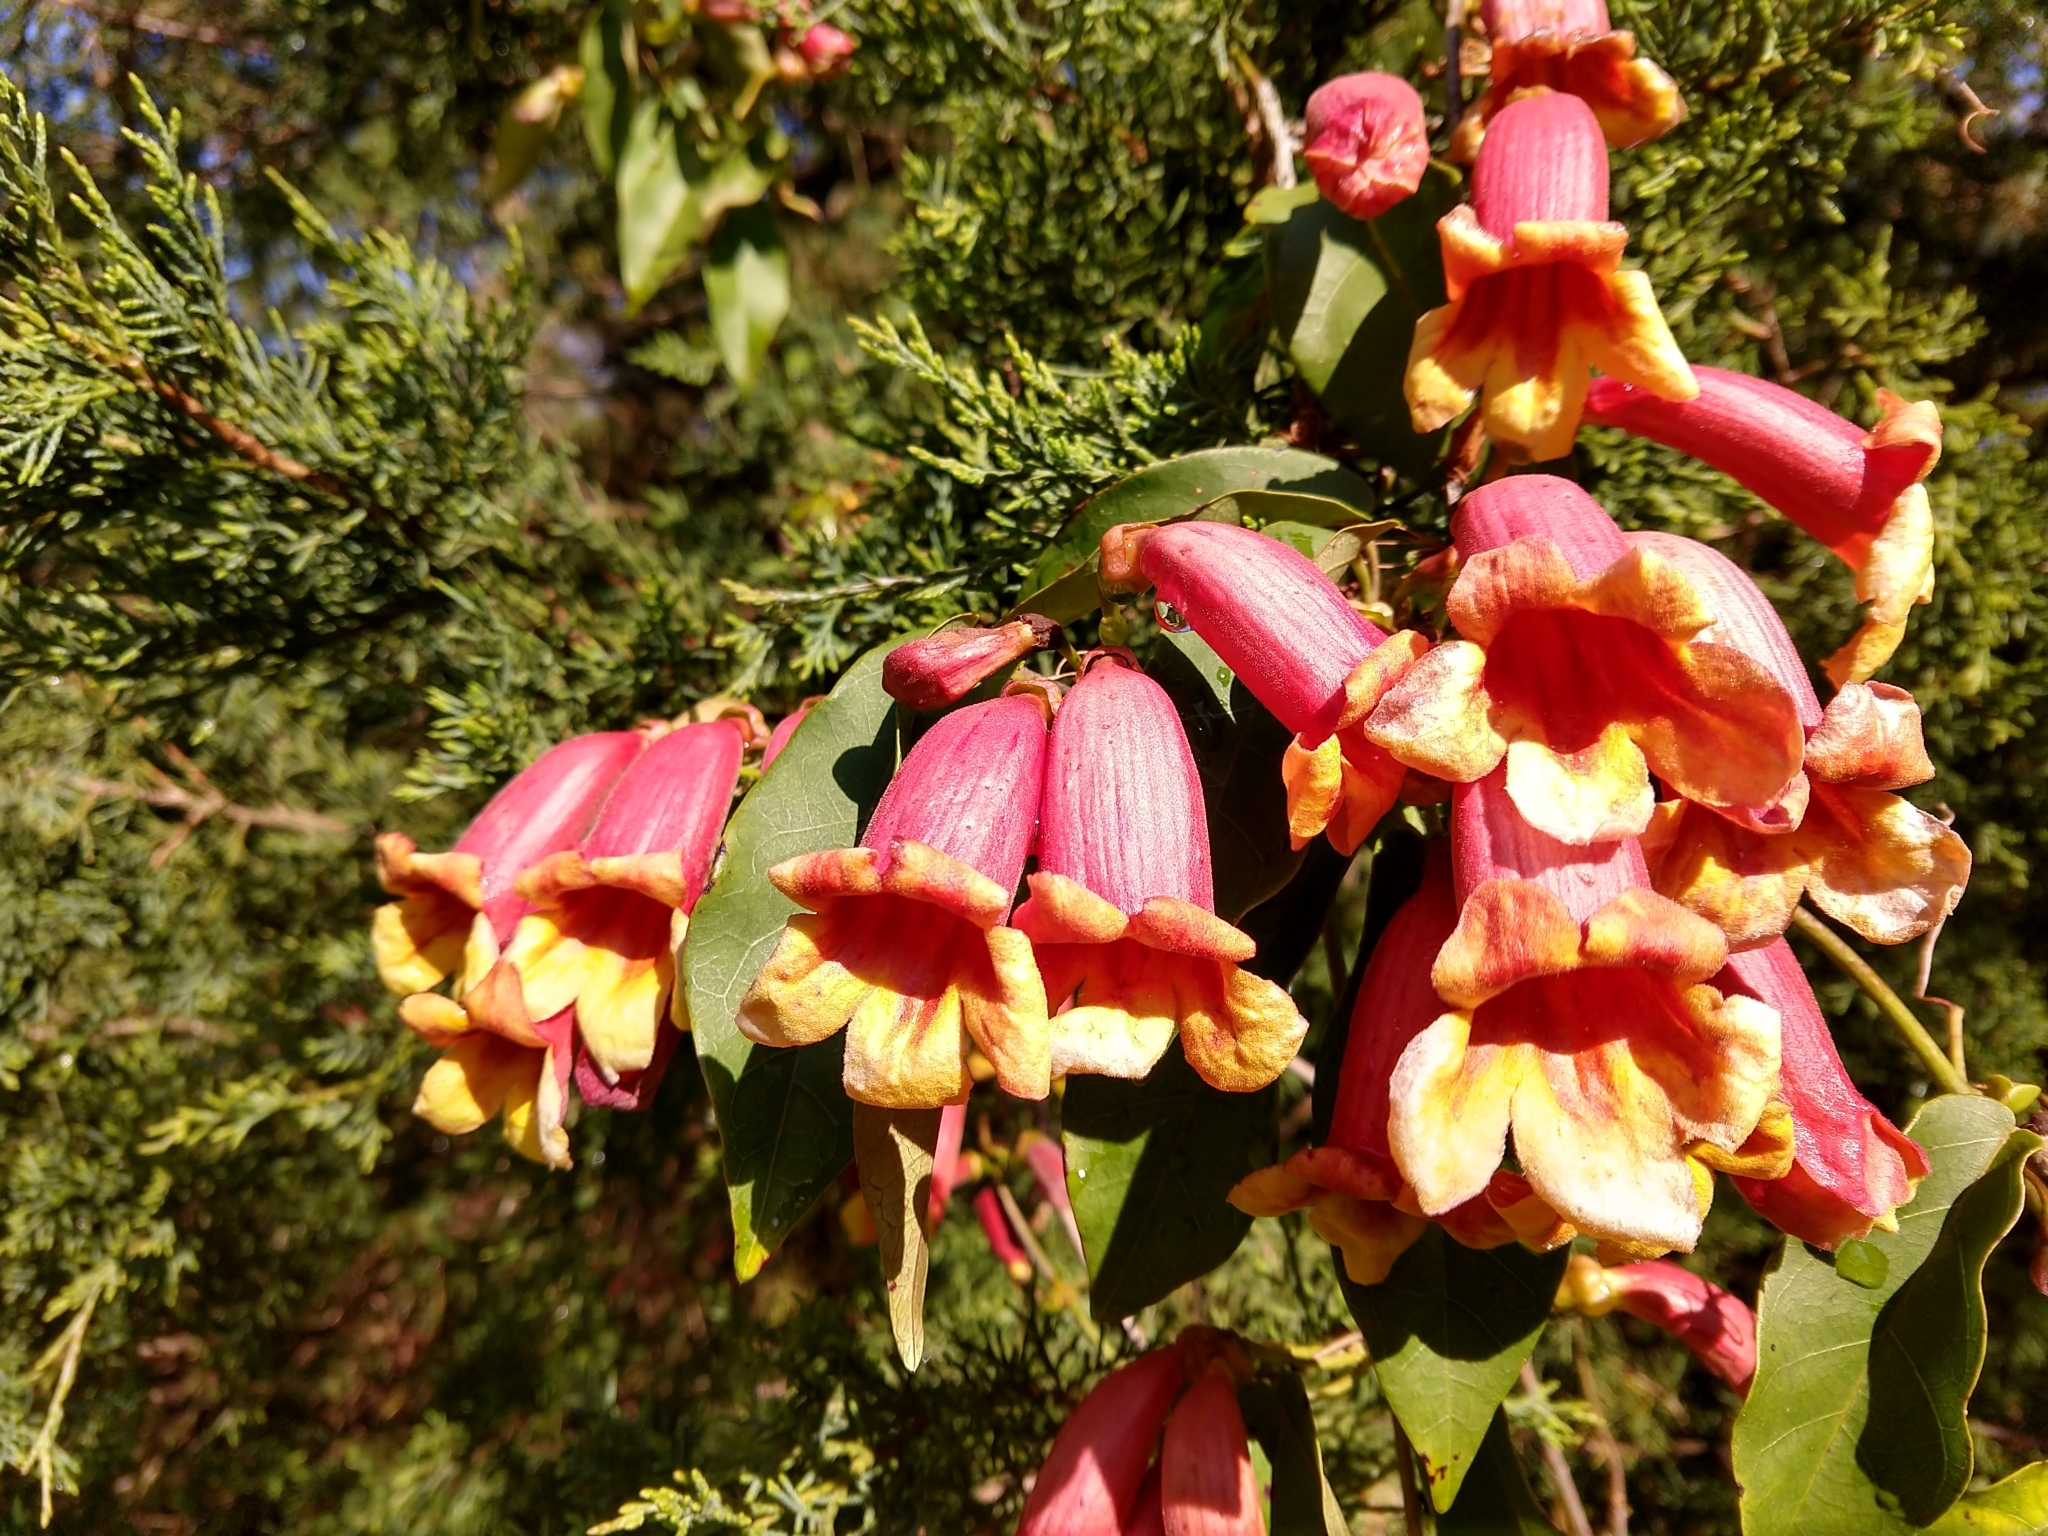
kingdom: Plantae
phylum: Tracheophyta
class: Magnoliopsida
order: Lamiales
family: Bignoniaceae
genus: Bignonia
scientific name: Bignonia capreolata
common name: Crossvine
